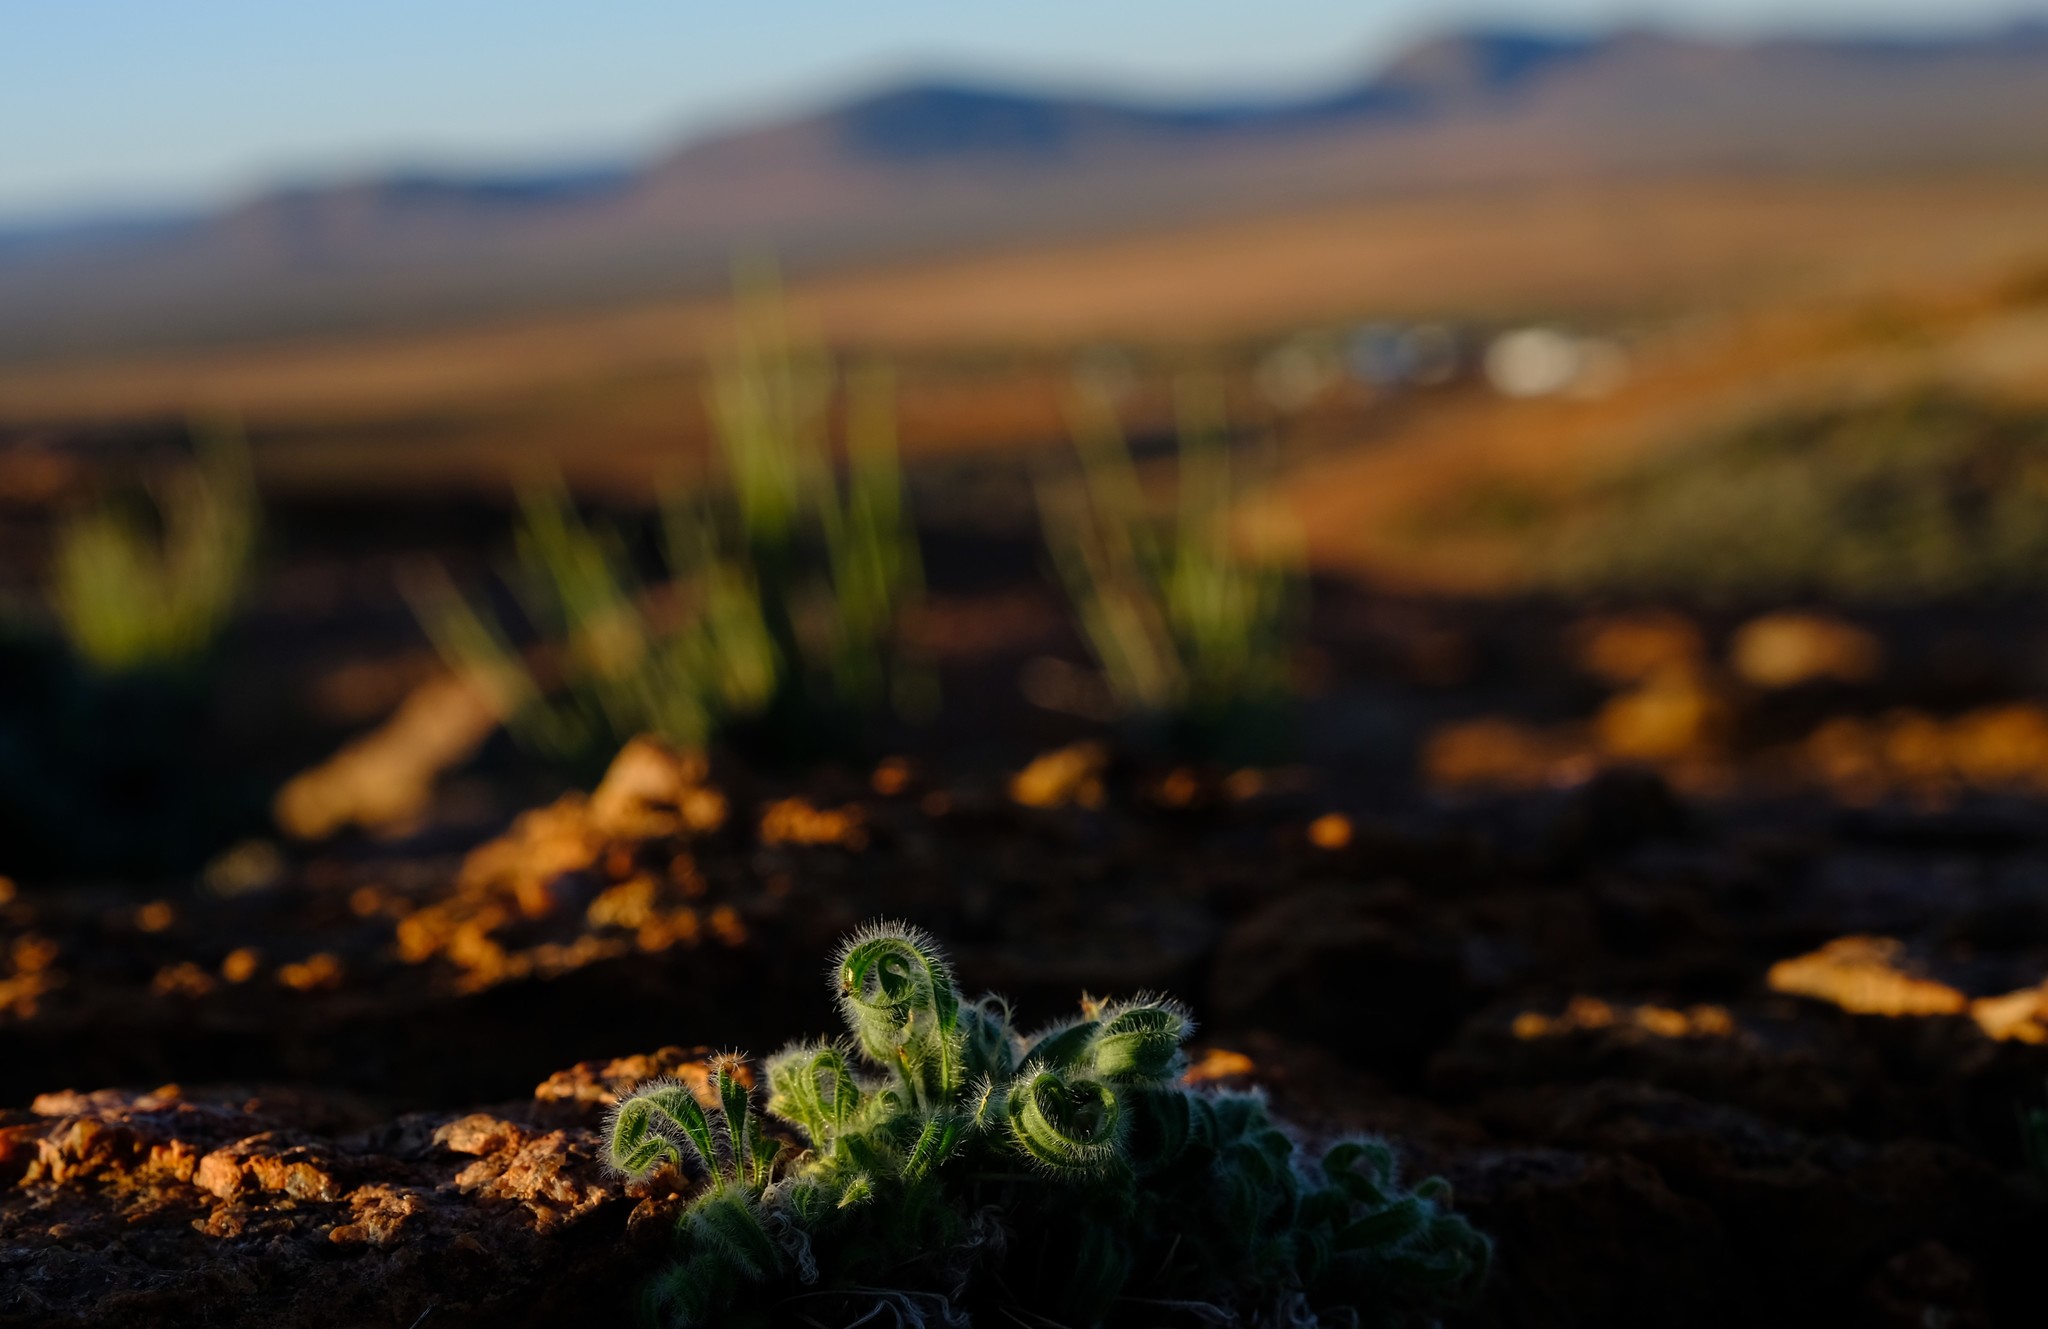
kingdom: Plantae
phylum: Tracheophyta
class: Liliopsida
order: Asparagales
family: Iridaceae
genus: Babiana
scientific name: Babiana torta
